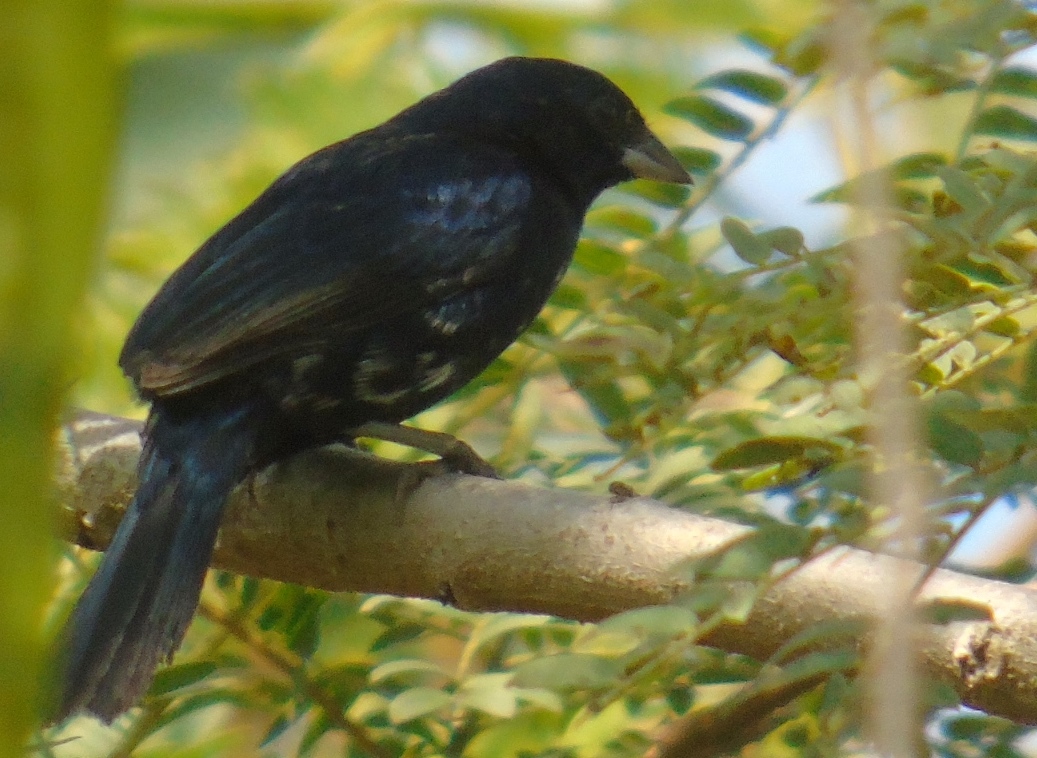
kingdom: Animalia
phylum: Chordata
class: Aves
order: Passeriformes
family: Thraupidae
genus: Volatinia
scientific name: Volatinia jacarina
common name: Blue-black grassquit
